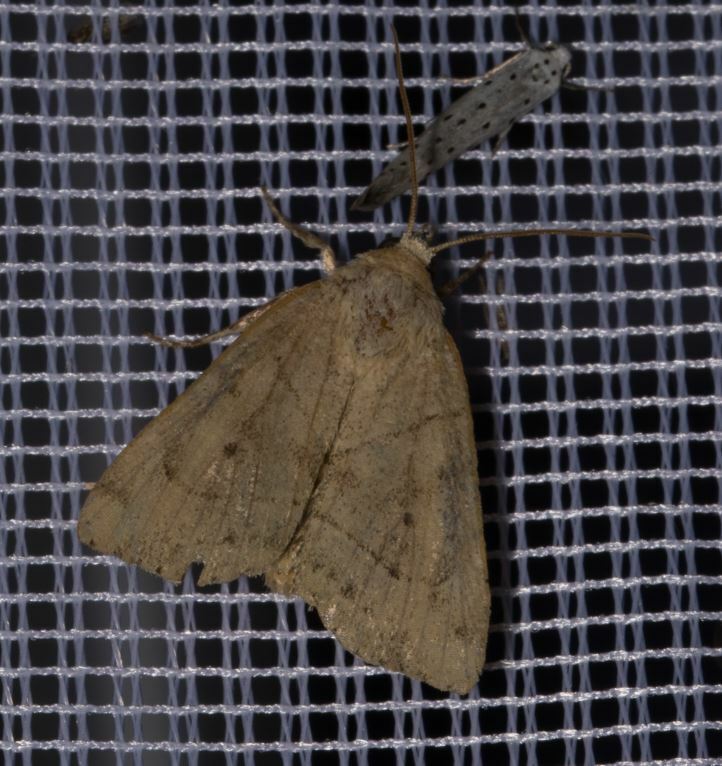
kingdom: Animalia
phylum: Arthropoda
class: Insecta
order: Lepidoptera
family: Noctuidae
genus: Cosmia
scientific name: Cosmia trapezina
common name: Dun-bar
